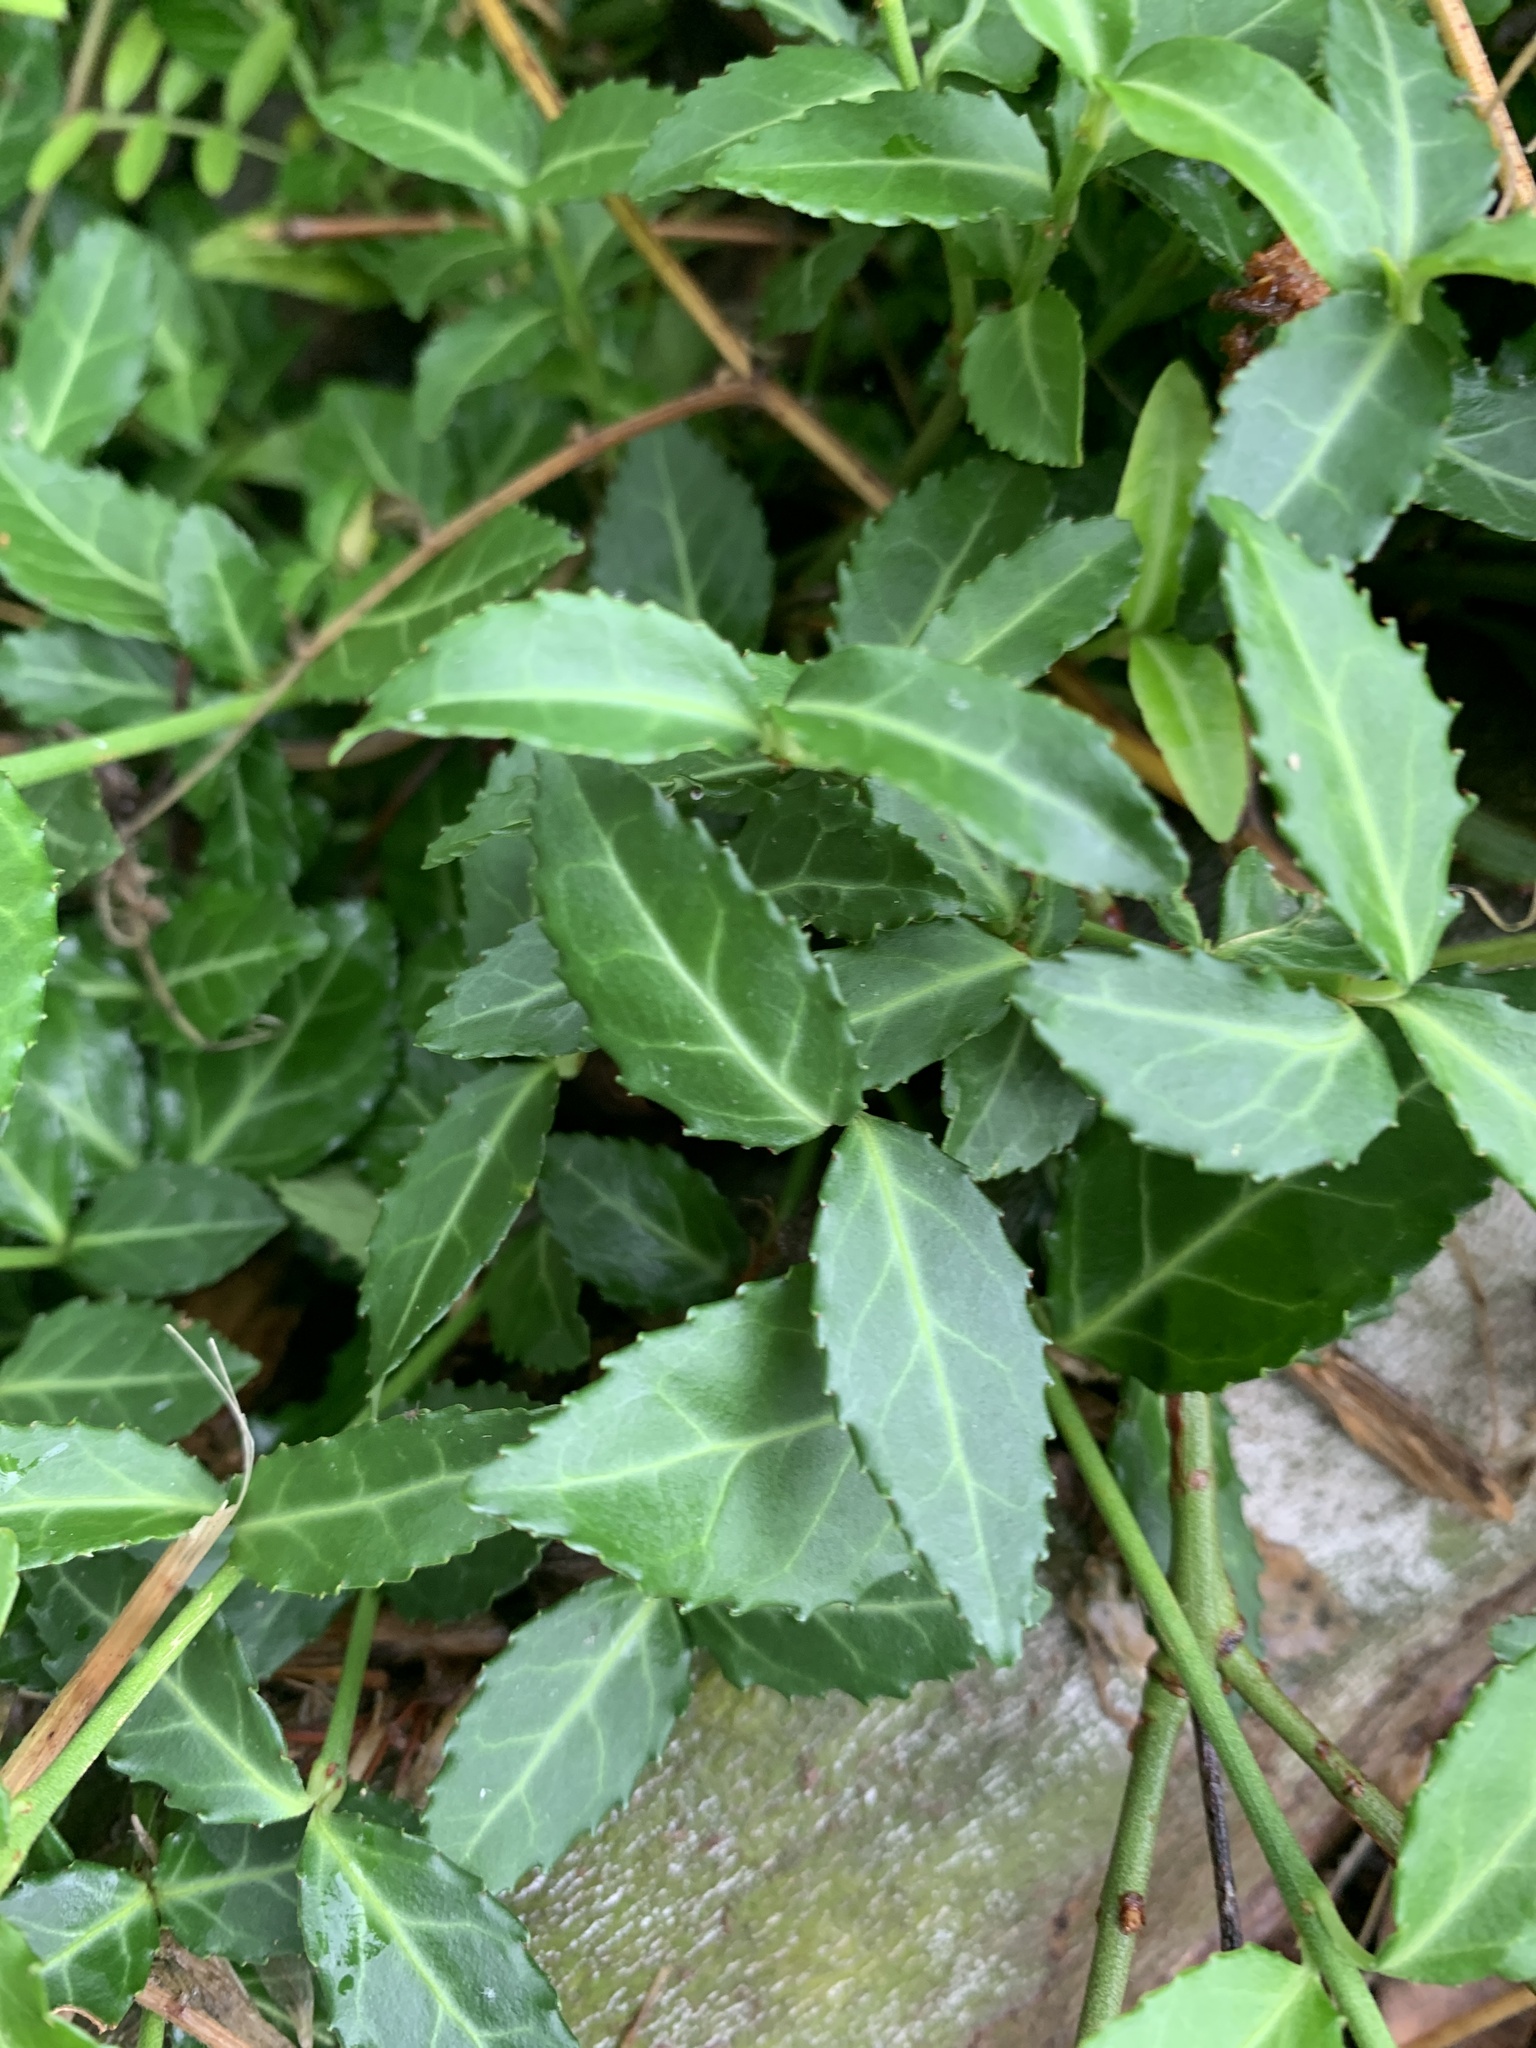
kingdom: Plantae
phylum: Tracheophyta
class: Magnoliopsida
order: Celastrales
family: Celastraceae
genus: Euonymus
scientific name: Euonymus fortunei
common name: Climbing euonymus
